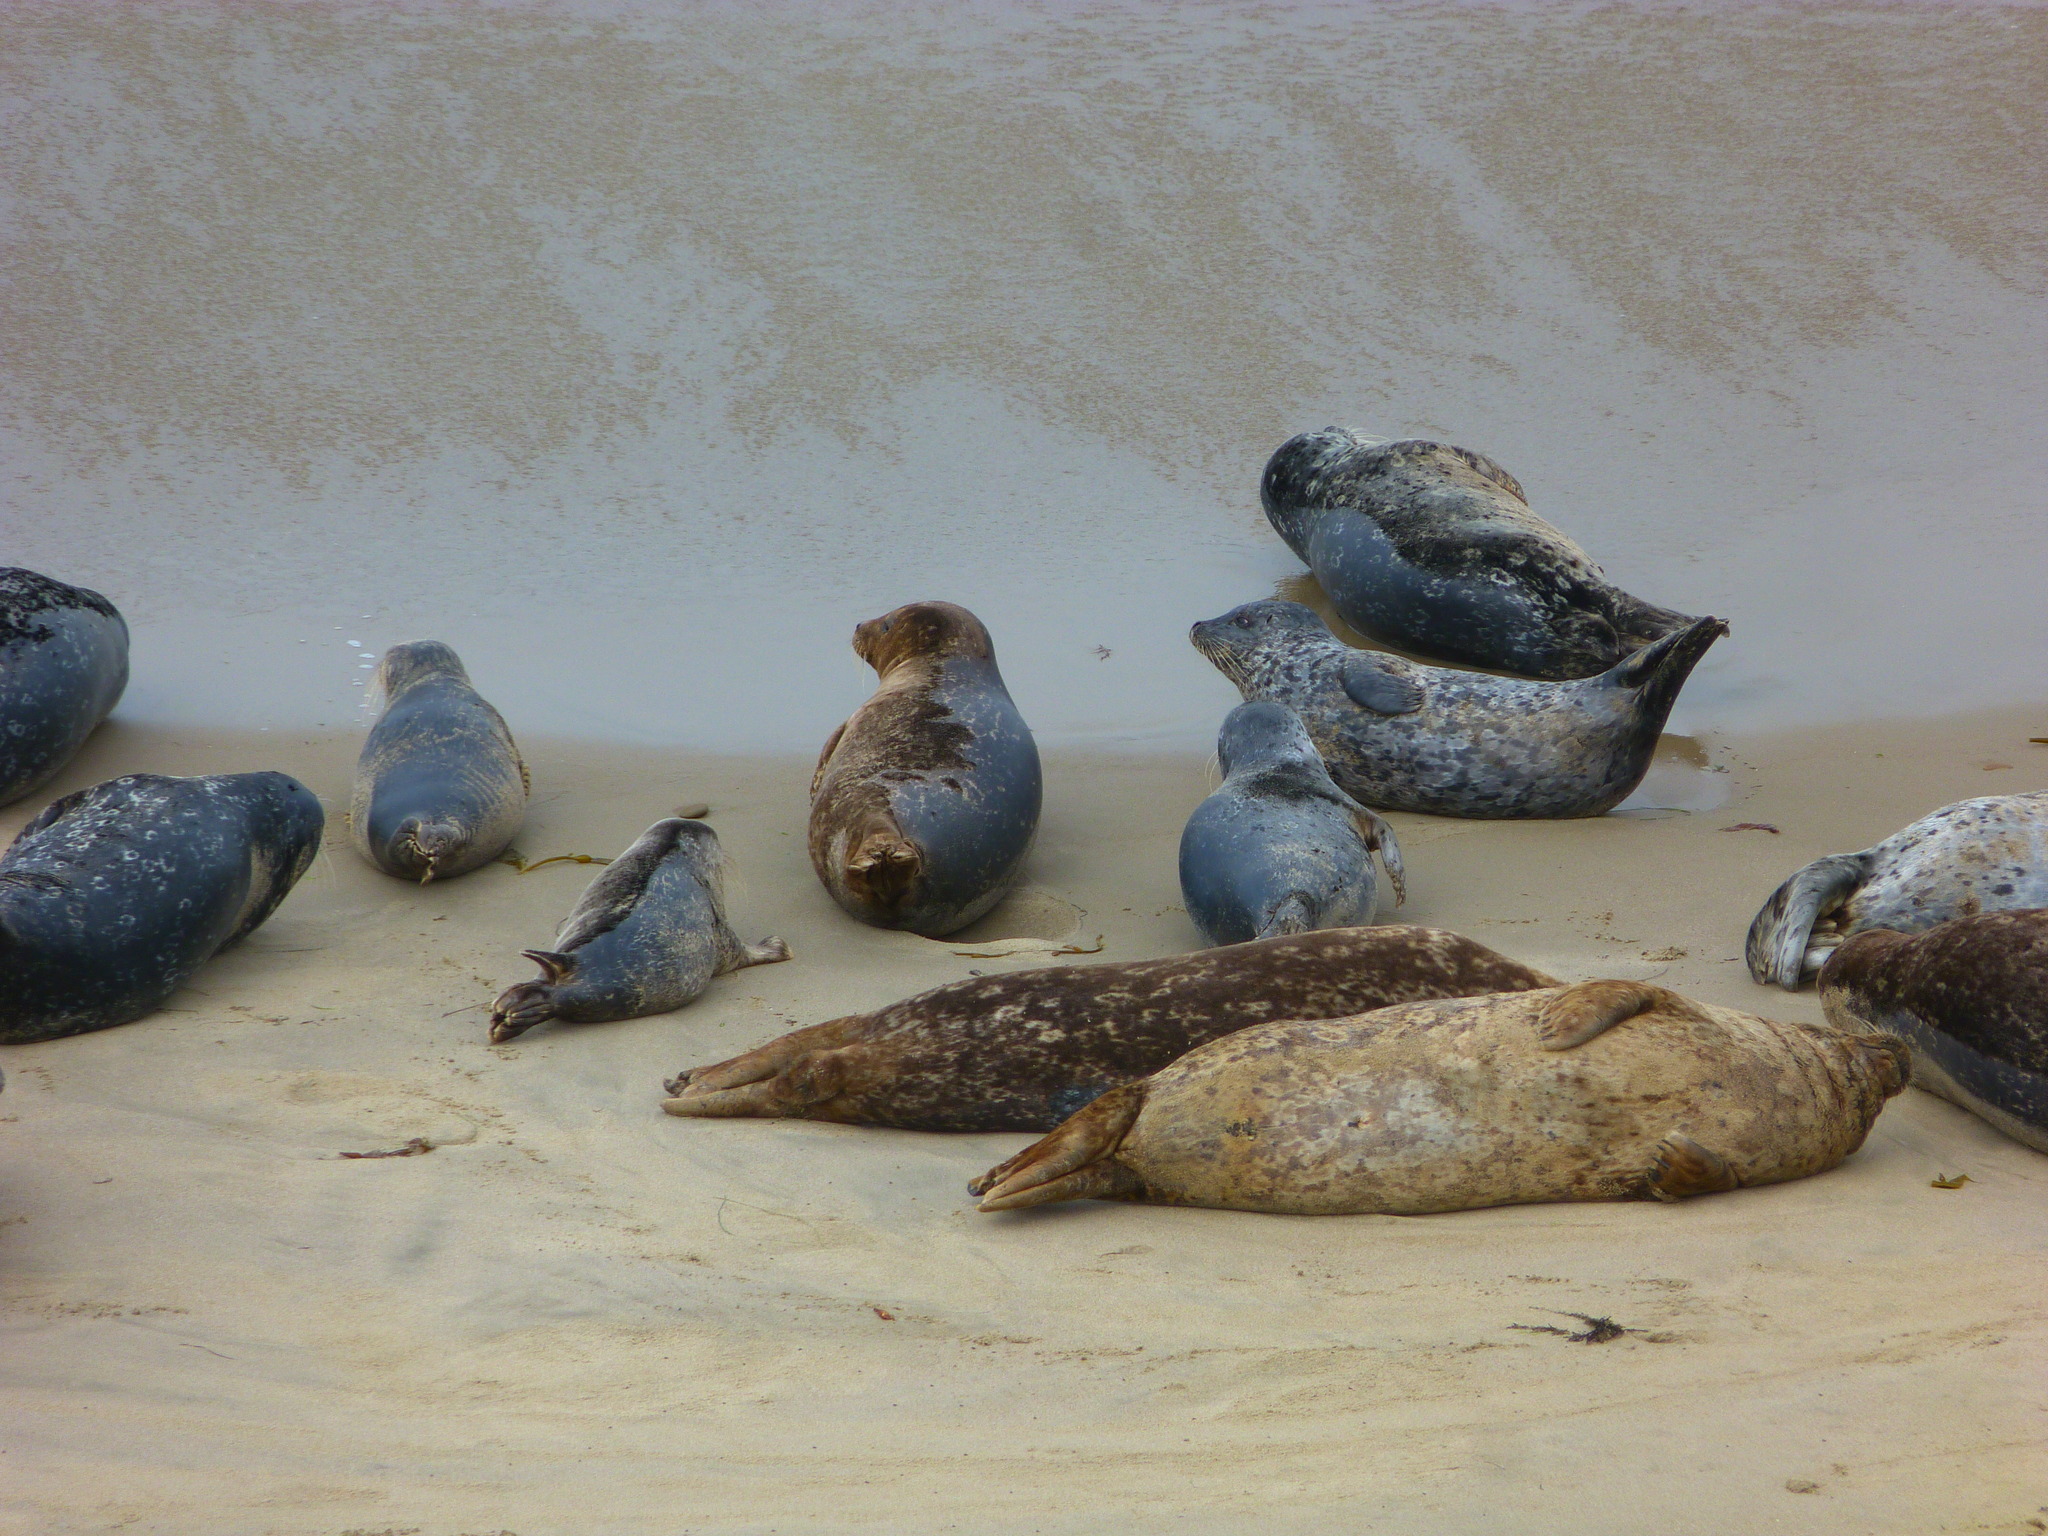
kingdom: Animalia
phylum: Chordata
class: Mammalia
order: Carnivora
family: Phocidae
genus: Phoca
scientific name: Phoca vitulina
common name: Harbor seal
